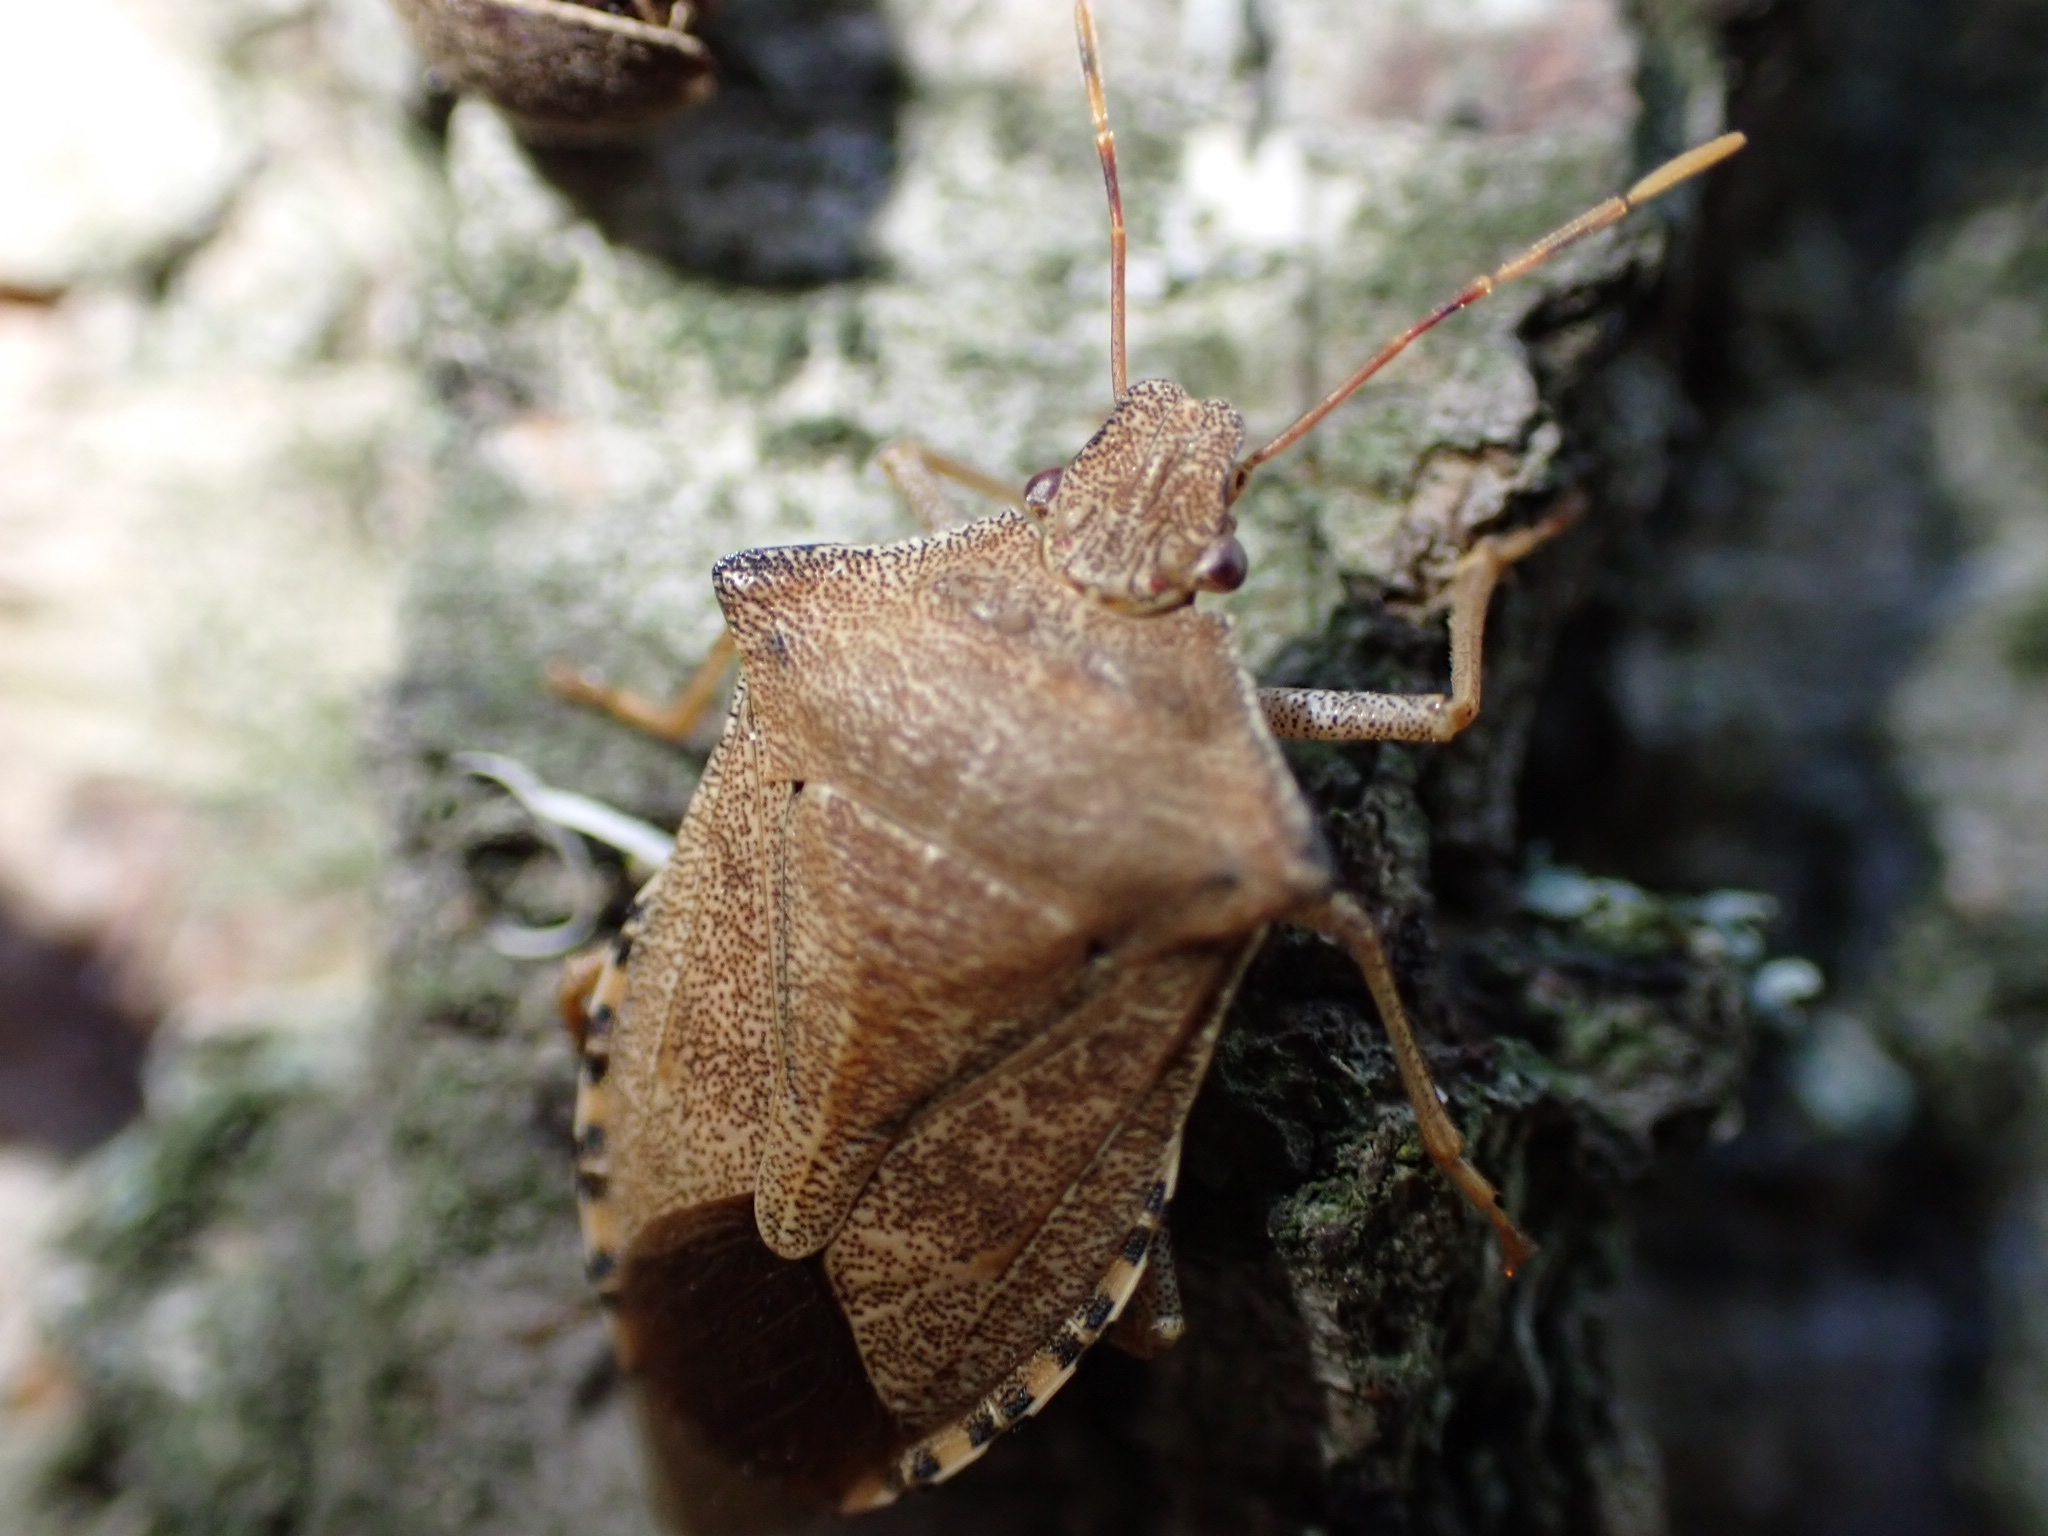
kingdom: Animalia
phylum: Arthropoda
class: Insecta
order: Hemiptera
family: Pentatomidae
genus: Arma
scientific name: Arma custos
